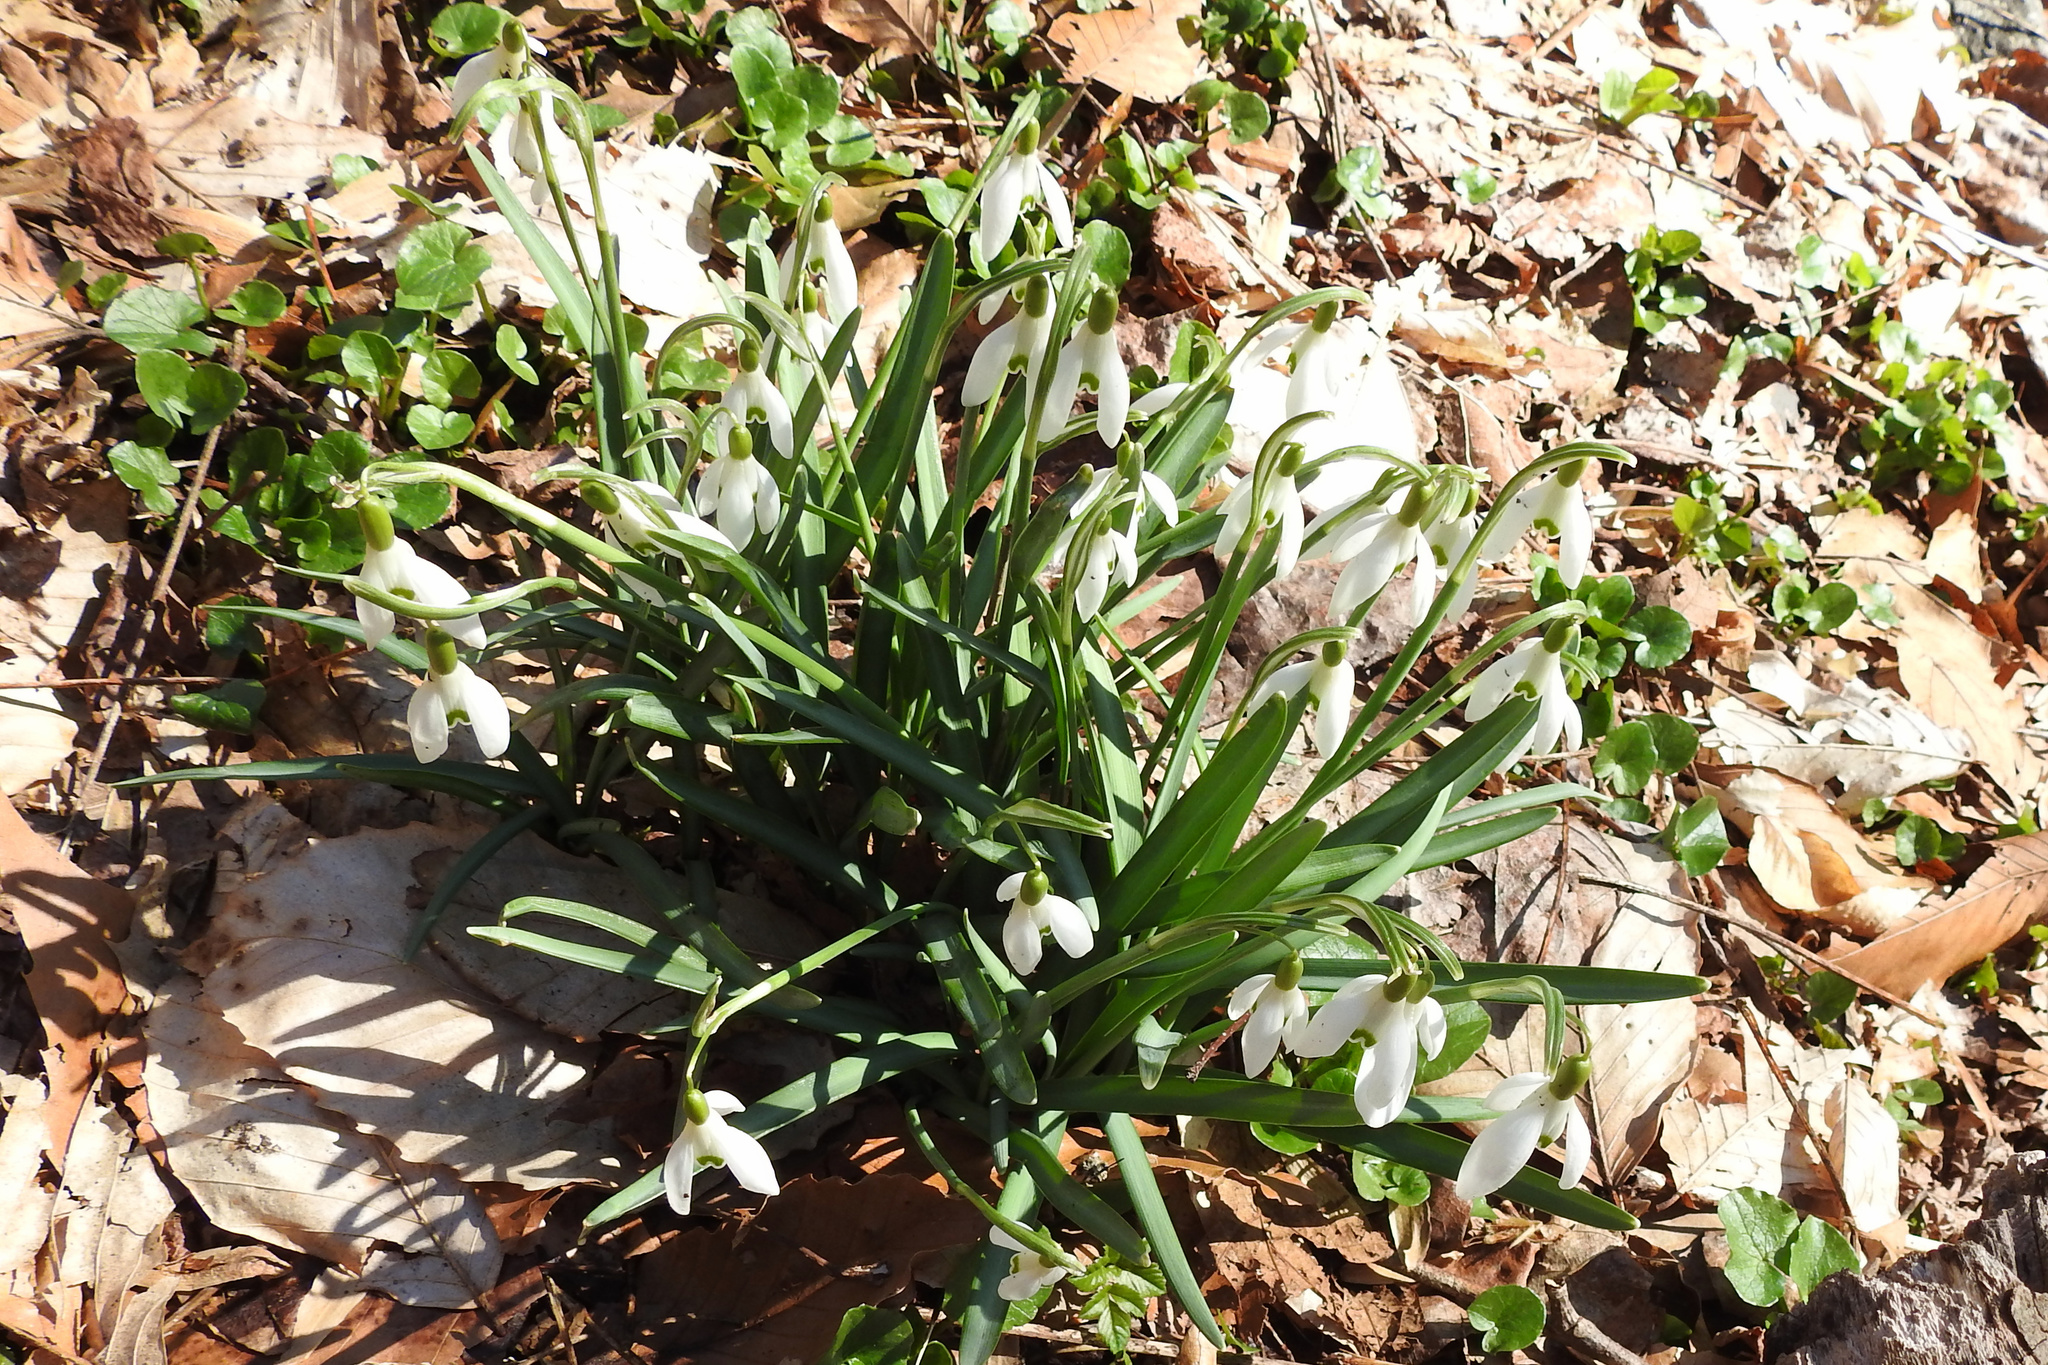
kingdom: Plantae
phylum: Tracheophyta
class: Liliopsida
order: Asparagales
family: Amaryllidaceae
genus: Galanthus
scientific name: Galanthus nivalis
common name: Snowdrop
